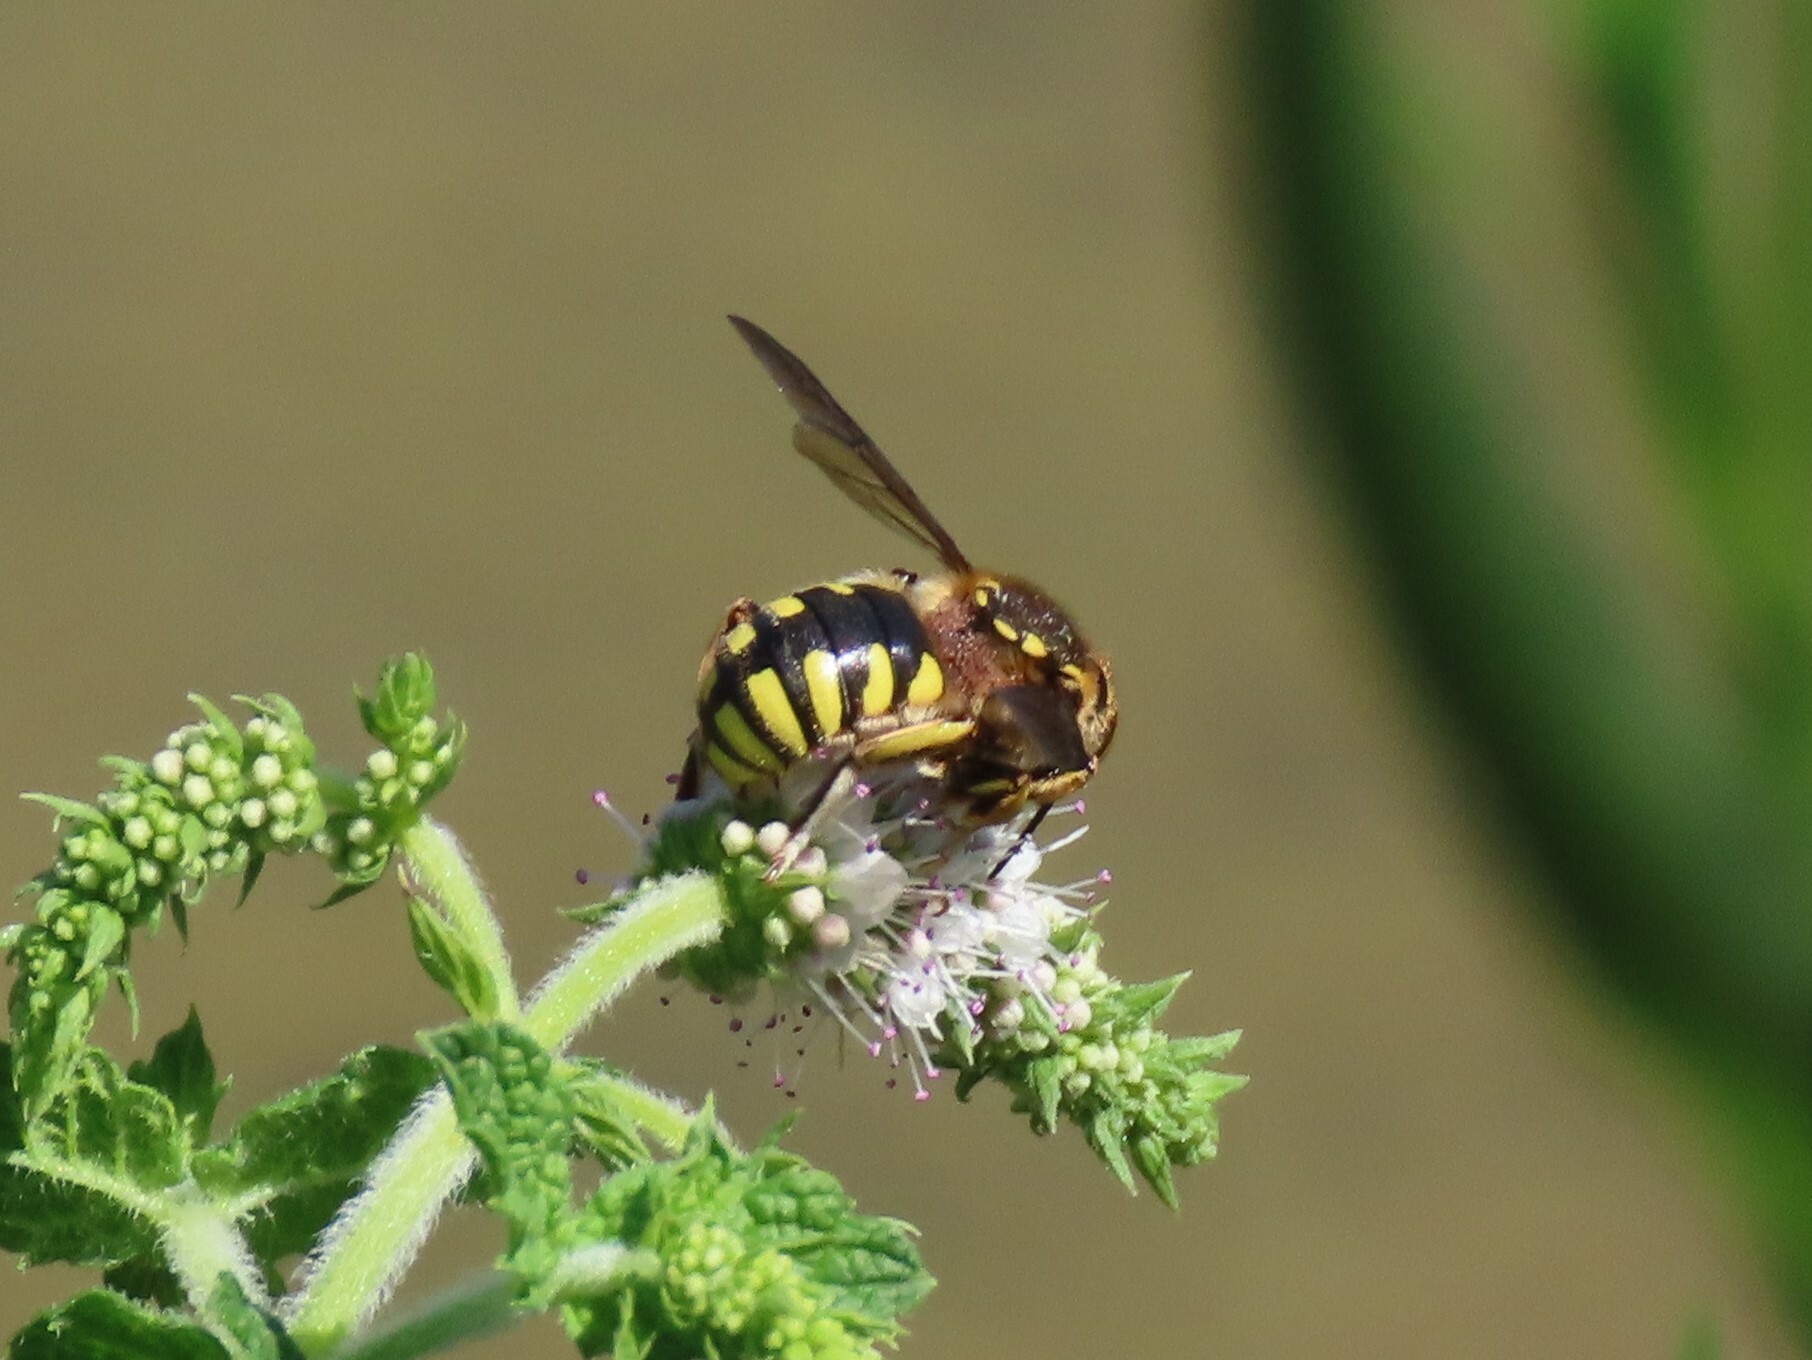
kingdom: Animalia
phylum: Arthropoda
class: Insecta
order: Hymenoptera
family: Megachilidae
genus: Anthidium
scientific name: Anthidium florentinum
